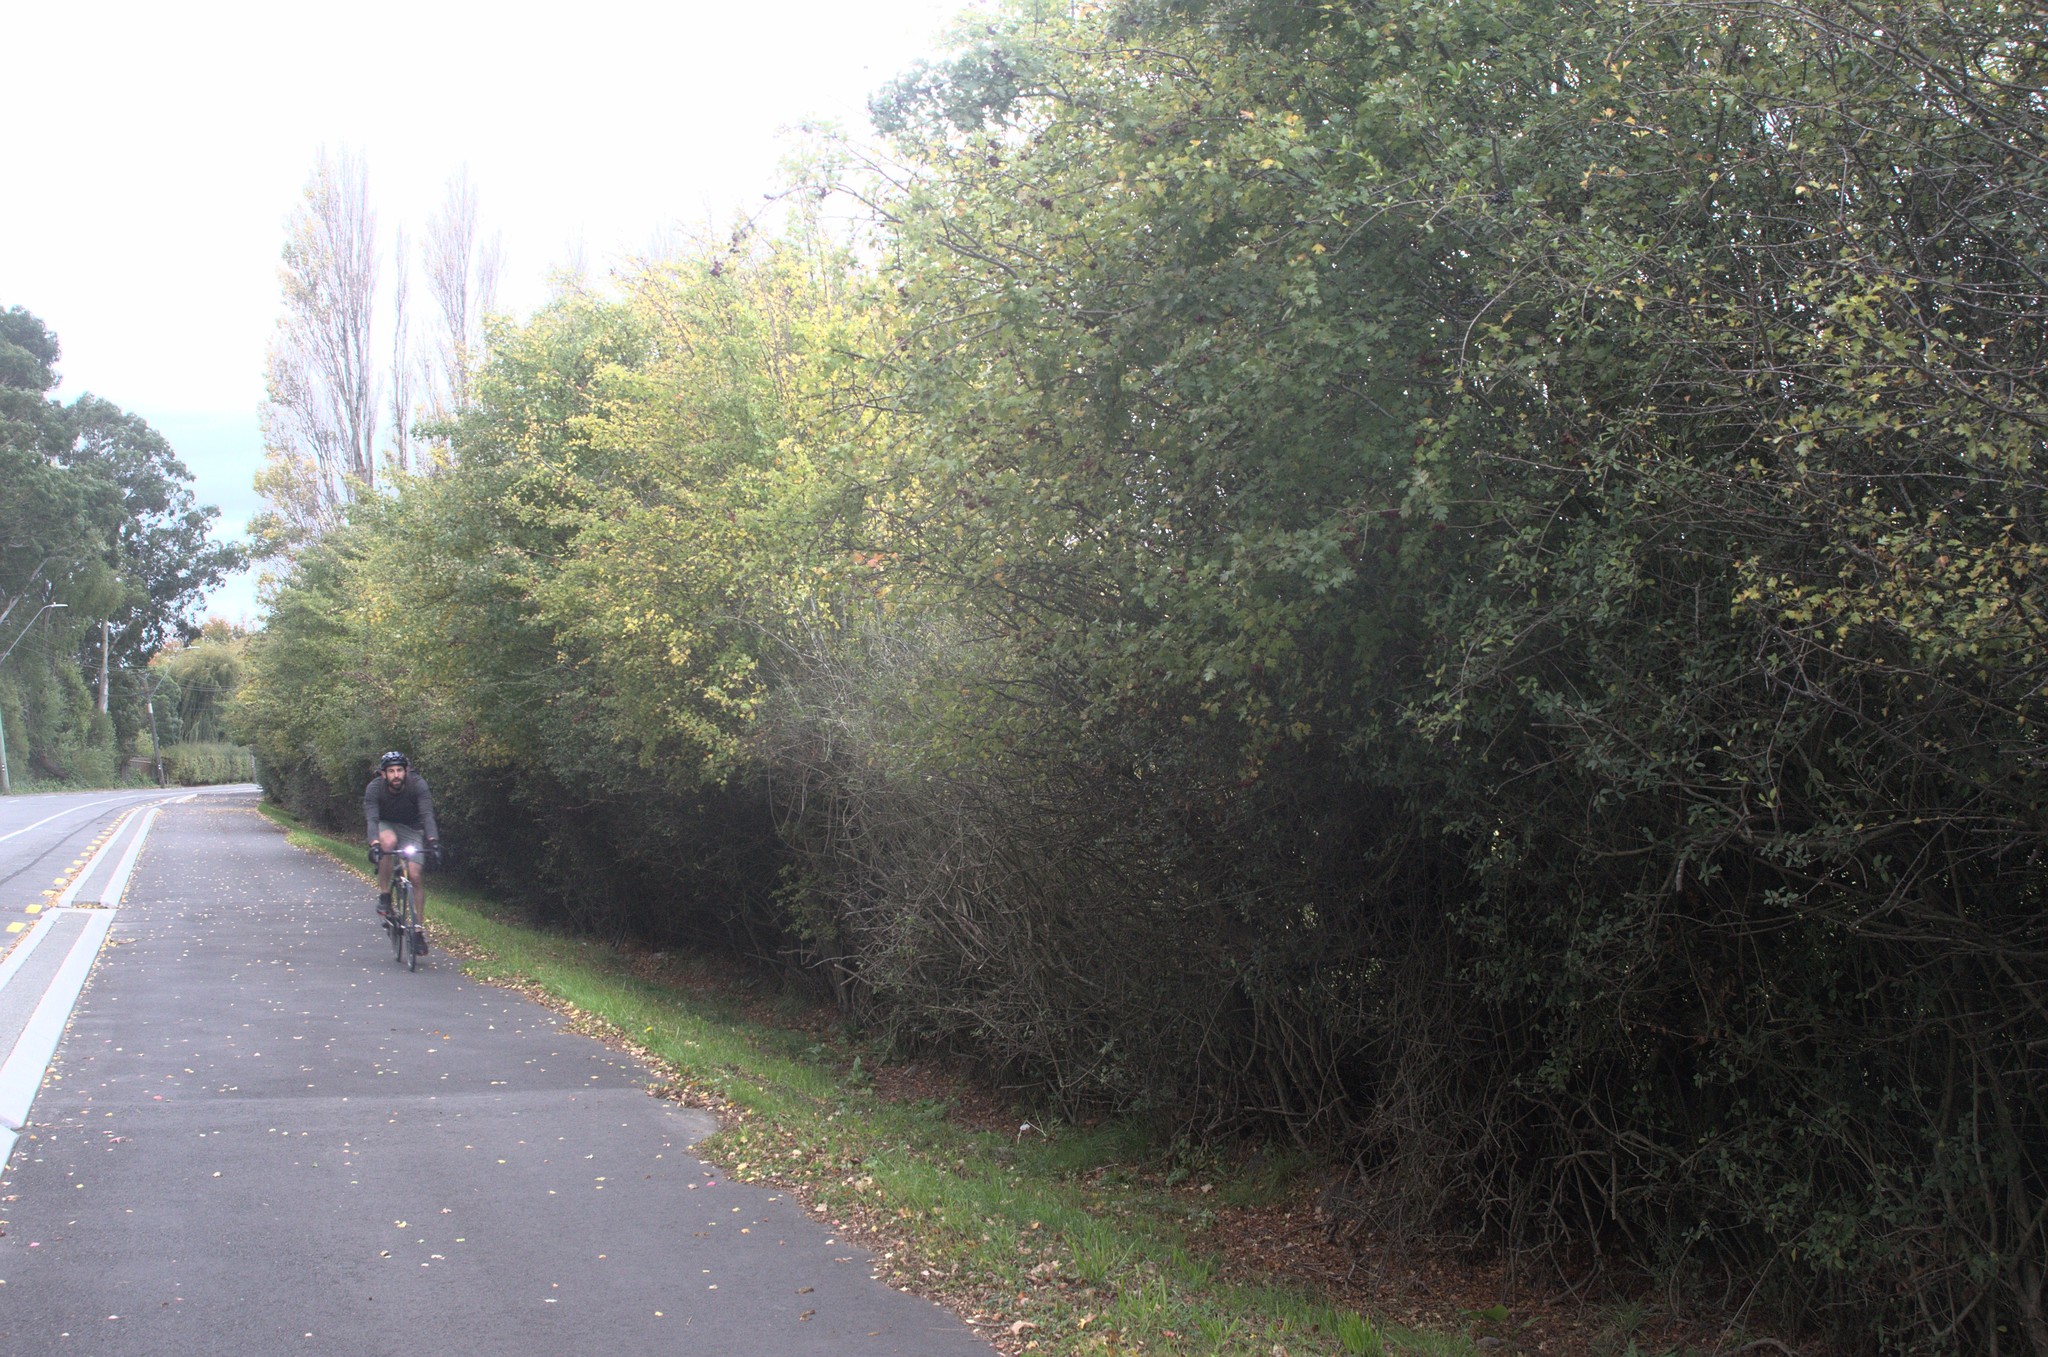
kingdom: Plantae
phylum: Tracheophyta
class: Magnoliopsida
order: Rosales
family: Rosaceae
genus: Crataegus
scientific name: Crataegus monogyna
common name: Hawthorn
